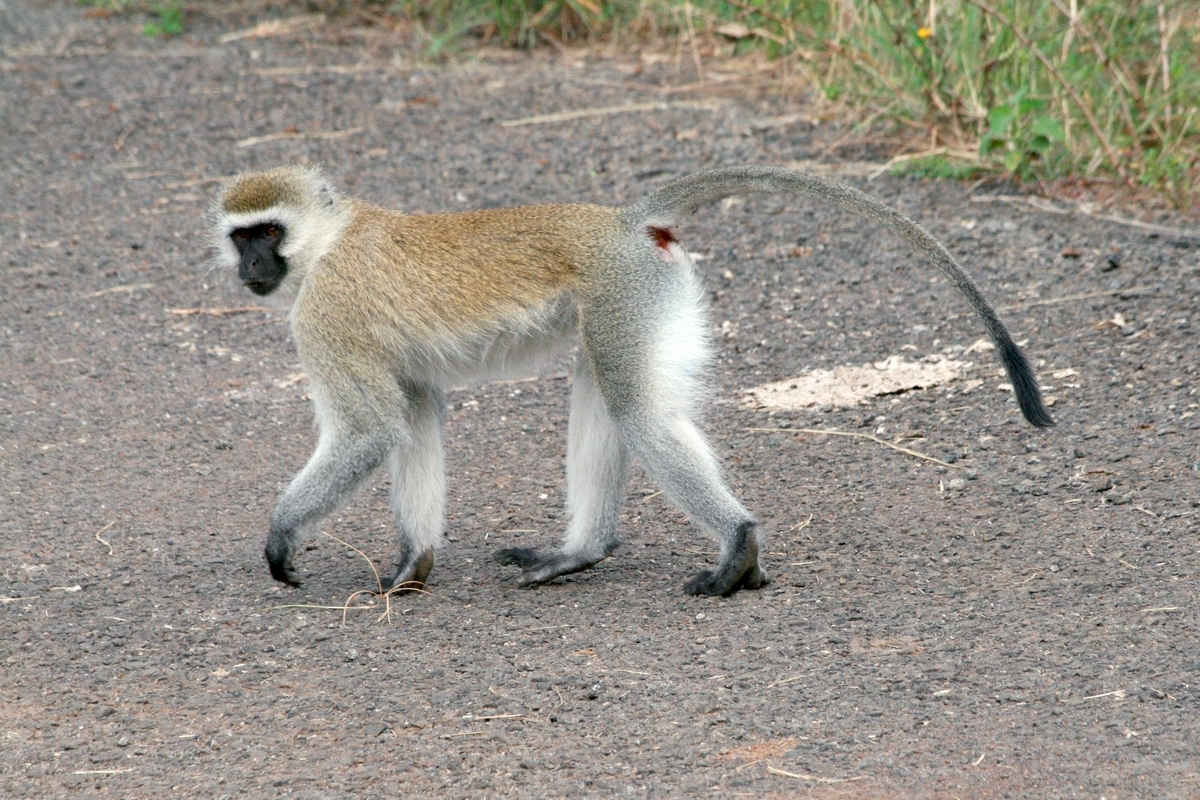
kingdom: Animalia
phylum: Chordata
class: Mammalia
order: Primates
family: Cercopithecidae
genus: Chlorocebus
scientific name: Chlorocebus pygerythrus
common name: Vervet monkey
